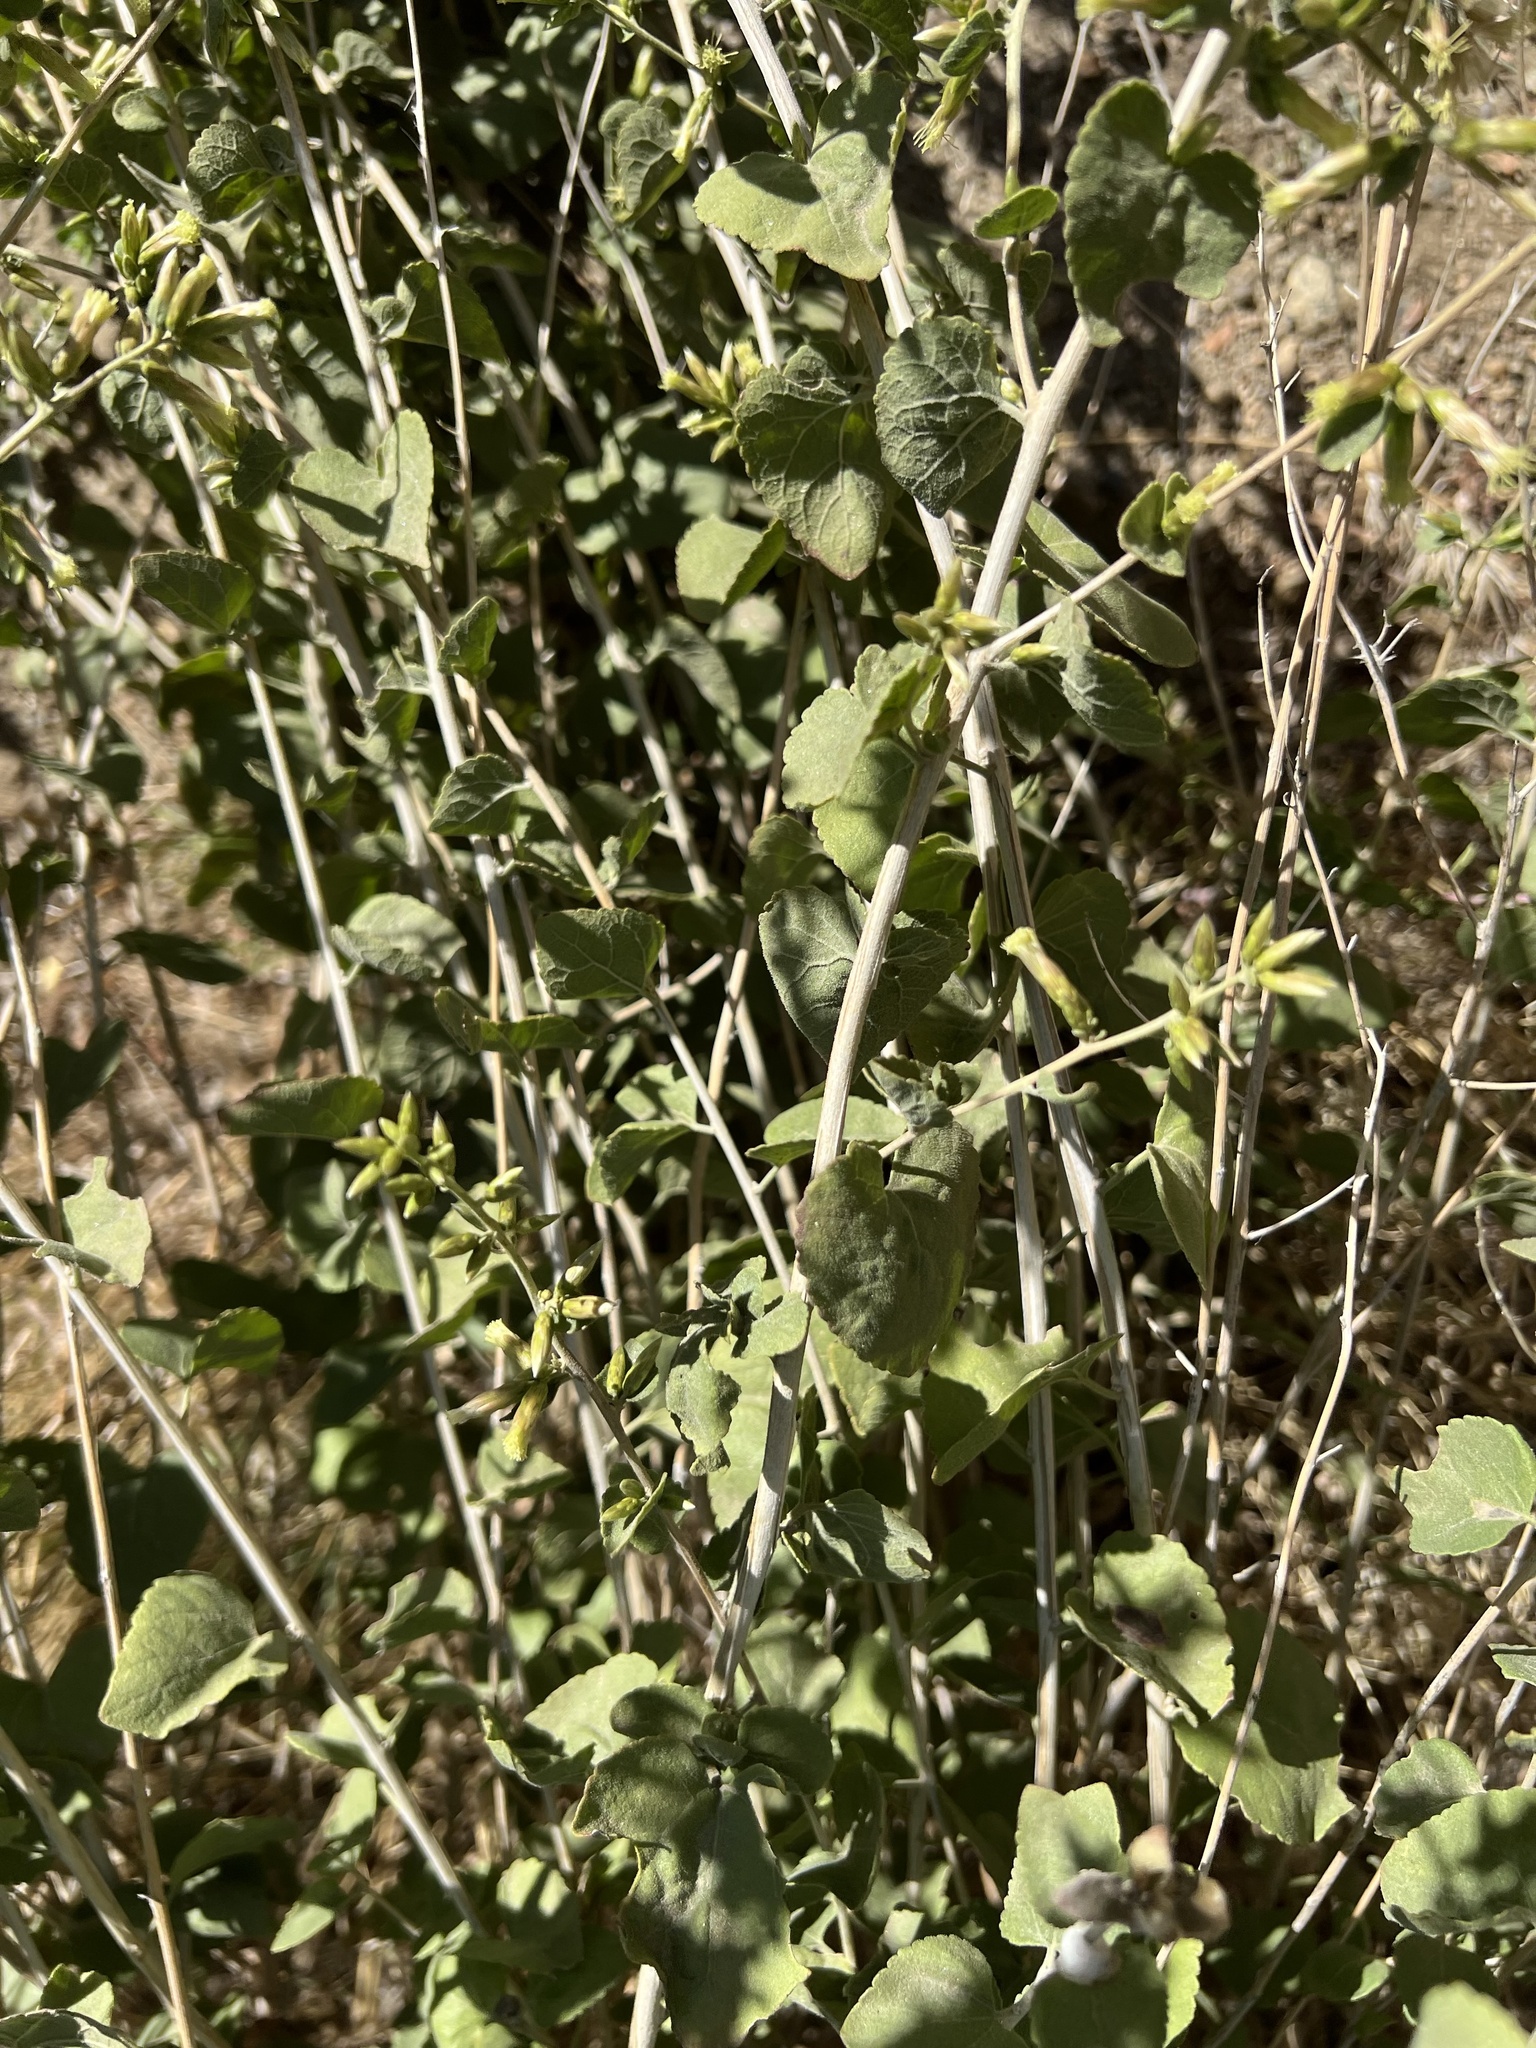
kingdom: Plantae
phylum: Tracheophyta
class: Magnoliopsida
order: Asterales
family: Asteraceae
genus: Brickellia
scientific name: Brickellia californica
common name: California brickellbush
